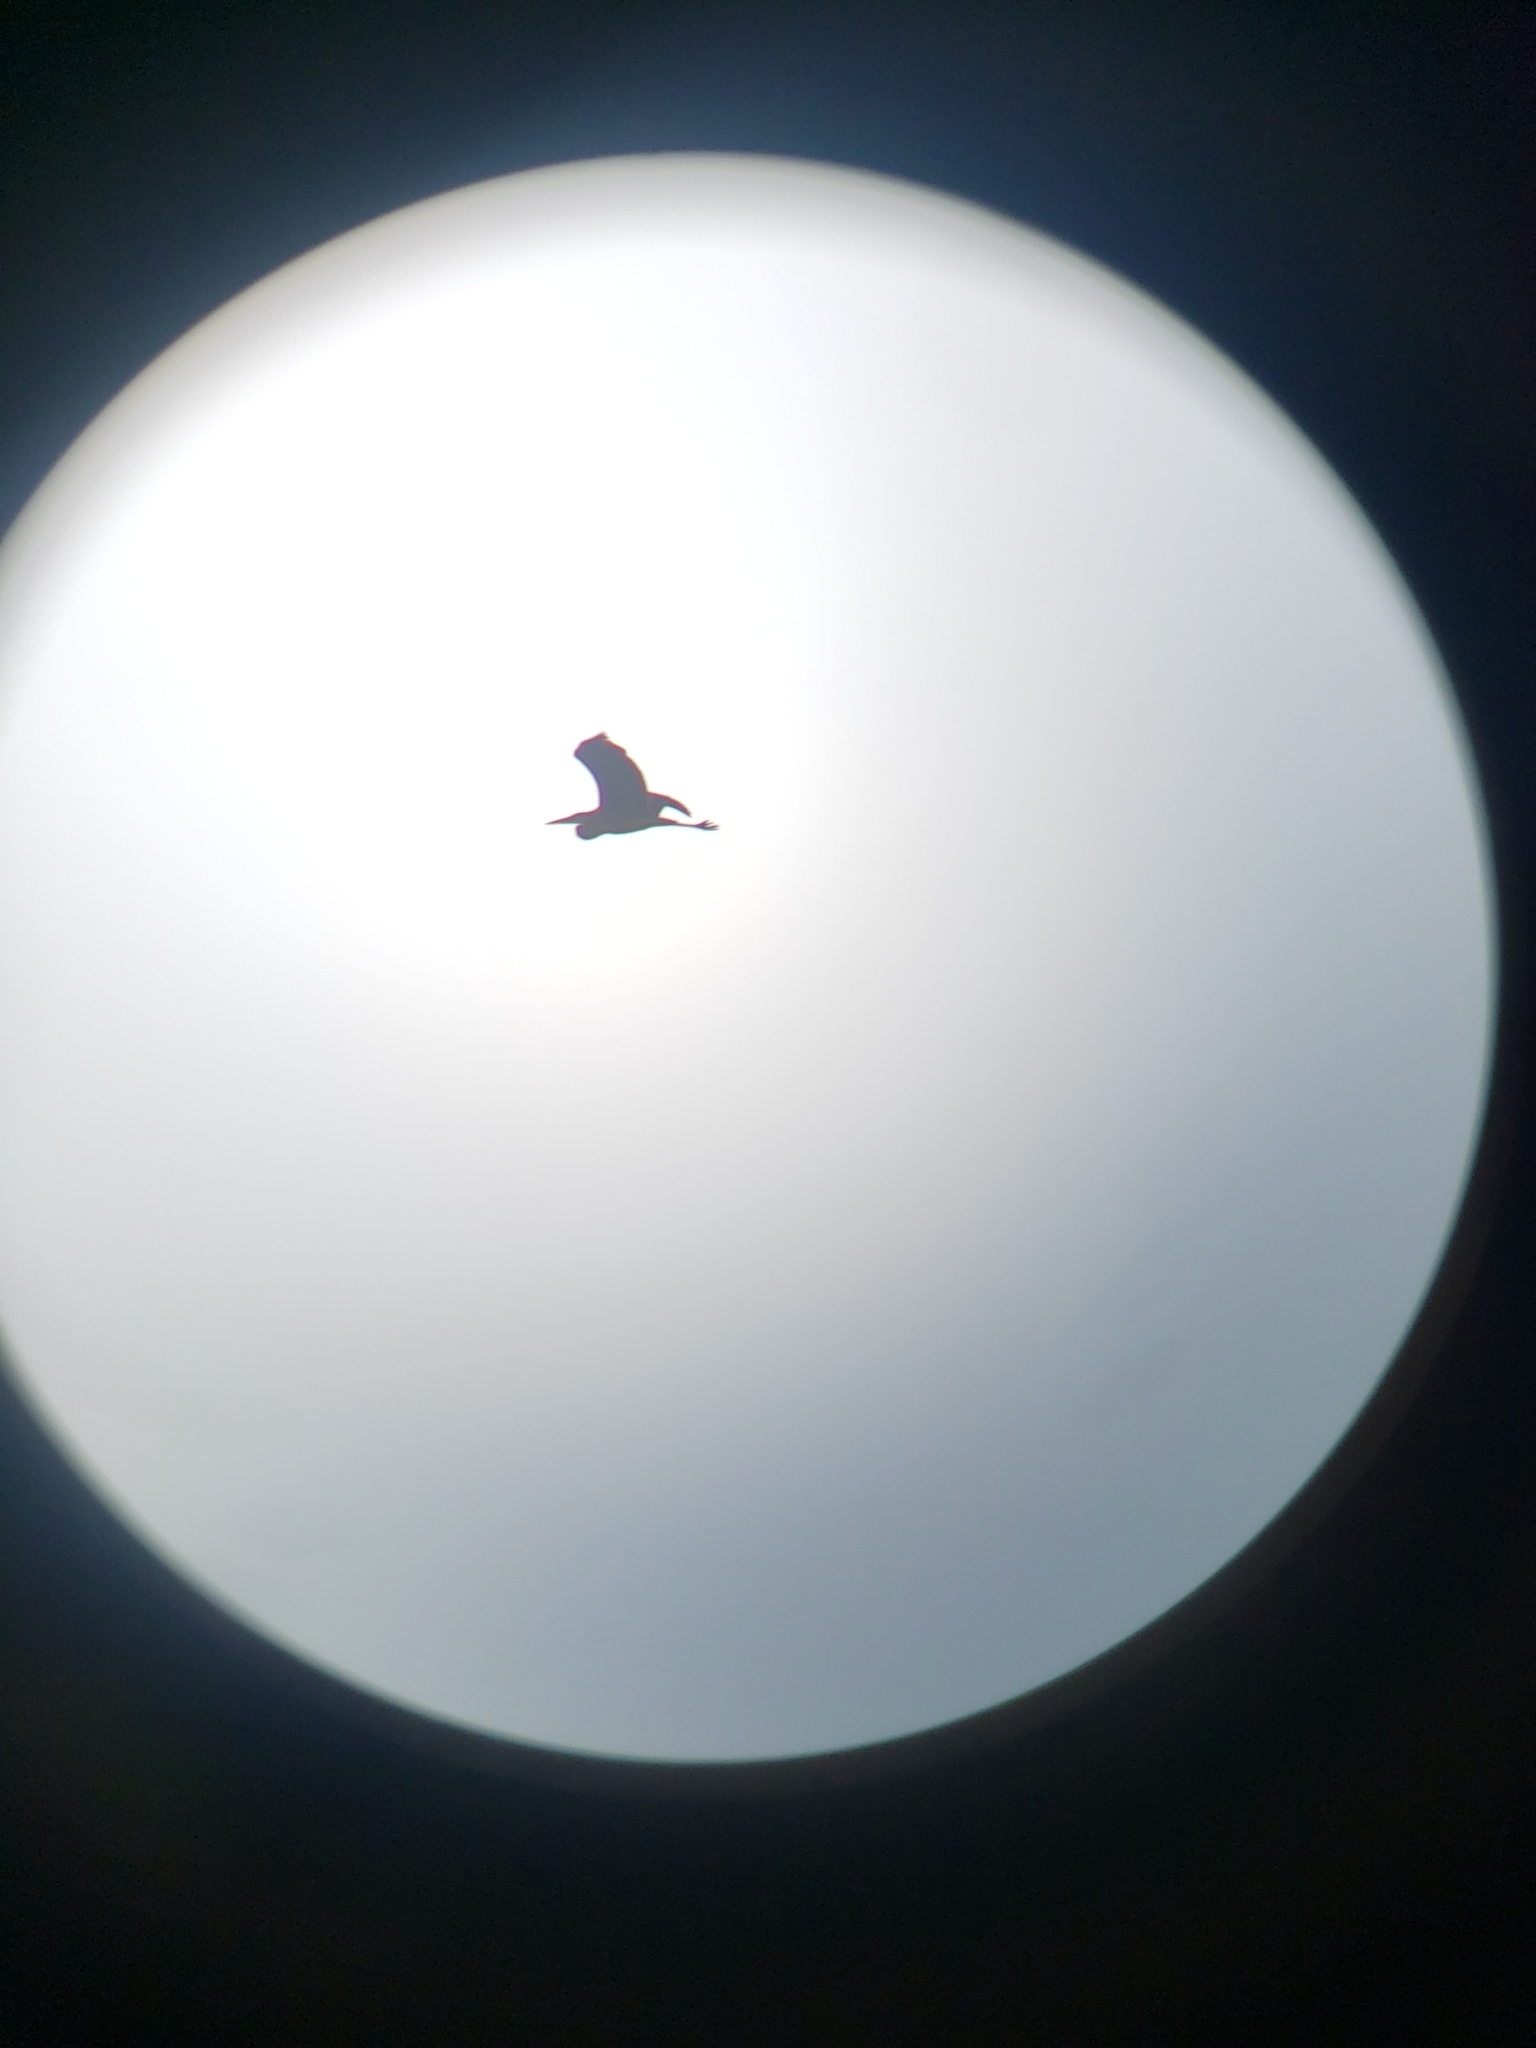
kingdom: Animalia
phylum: Chordata
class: Aves
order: Pelecaniformes
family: Ardeidae
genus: Ardea
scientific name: Ardea herodias
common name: Great blue heron
